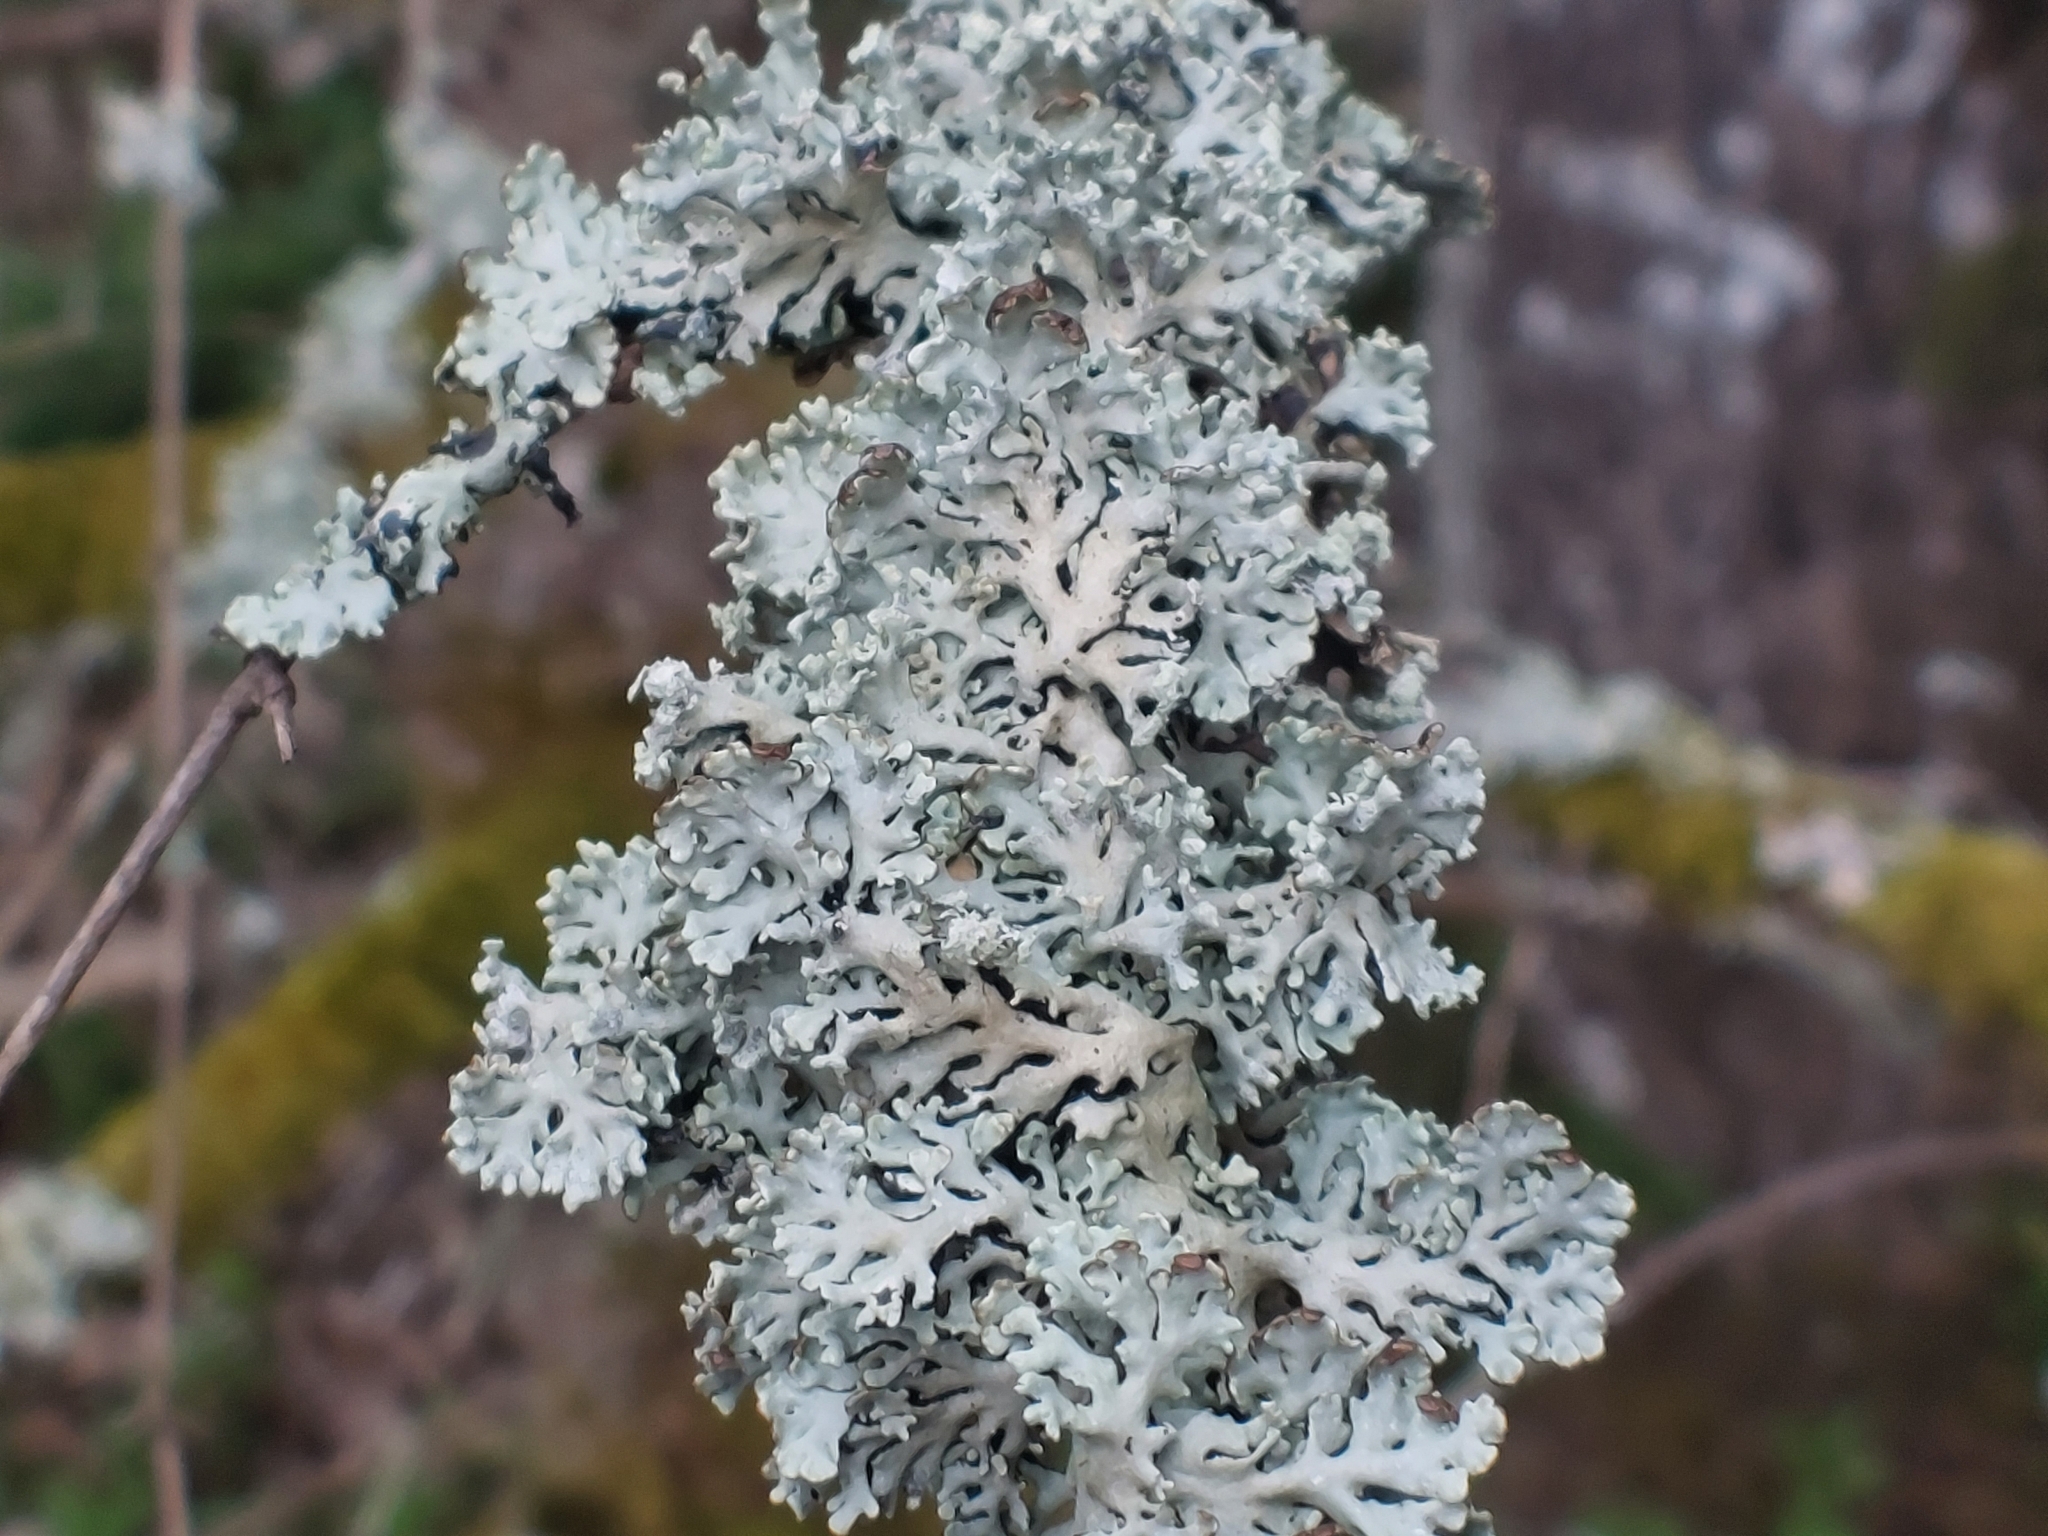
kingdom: Fungi
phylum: Ascomycota
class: Lecanoromycetes
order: Lecanorales
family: Parmeliaceae
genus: Hypogymnia
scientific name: Hypogymnia physodes
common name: Dark crottle
